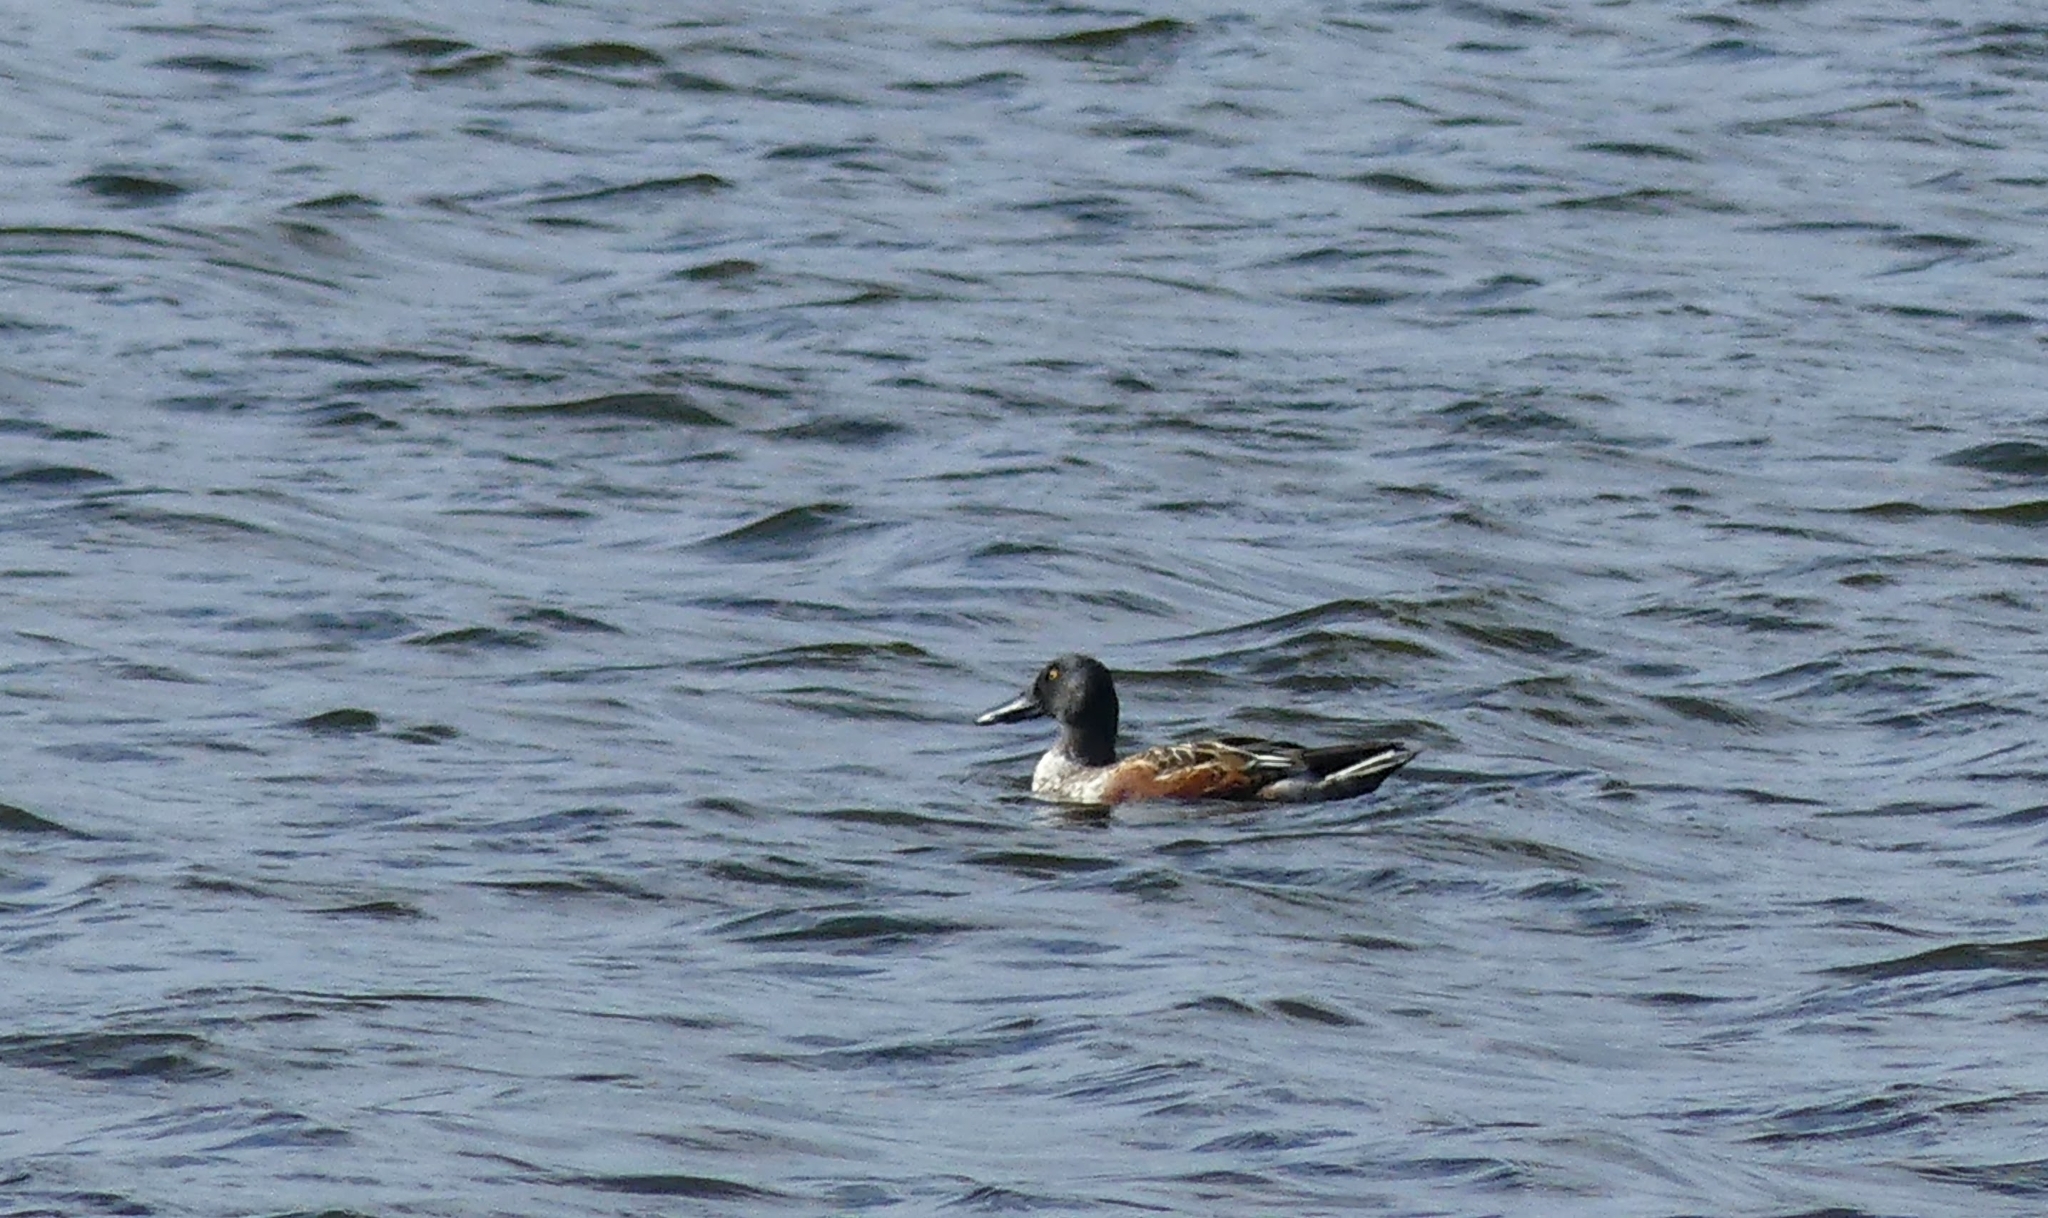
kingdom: Animalia
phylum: Chordata
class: Aves
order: Anseriformes
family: Anatidae
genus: Spatula
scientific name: Spatula clypeata
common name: Northern shoveler
